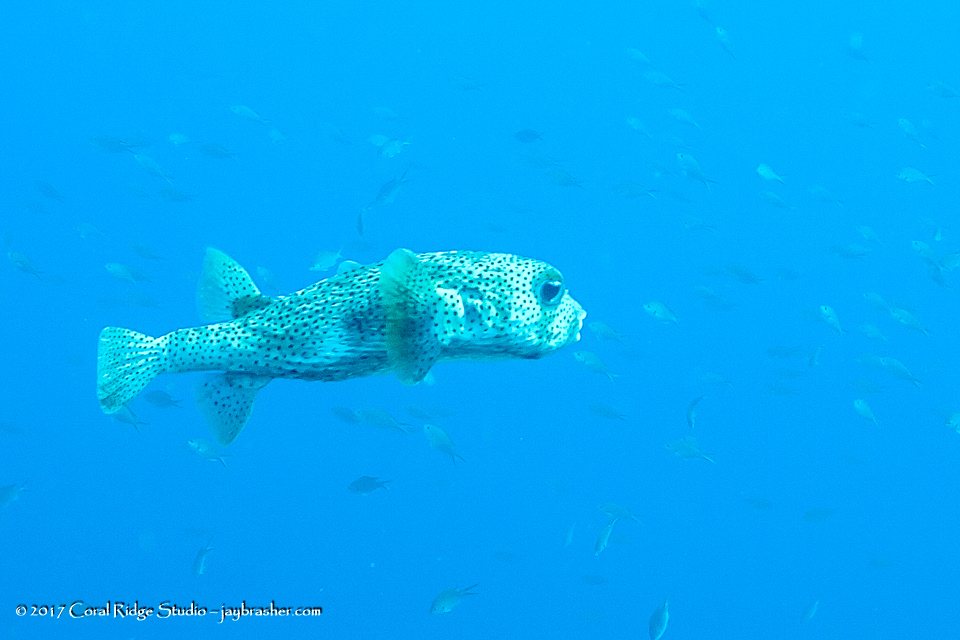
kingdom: Animalia
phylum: Chordata
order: Tetraodontiformes
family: Diodontidae
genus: Diodon
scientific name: Diodon hystrix
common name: Giant porcupinefish
